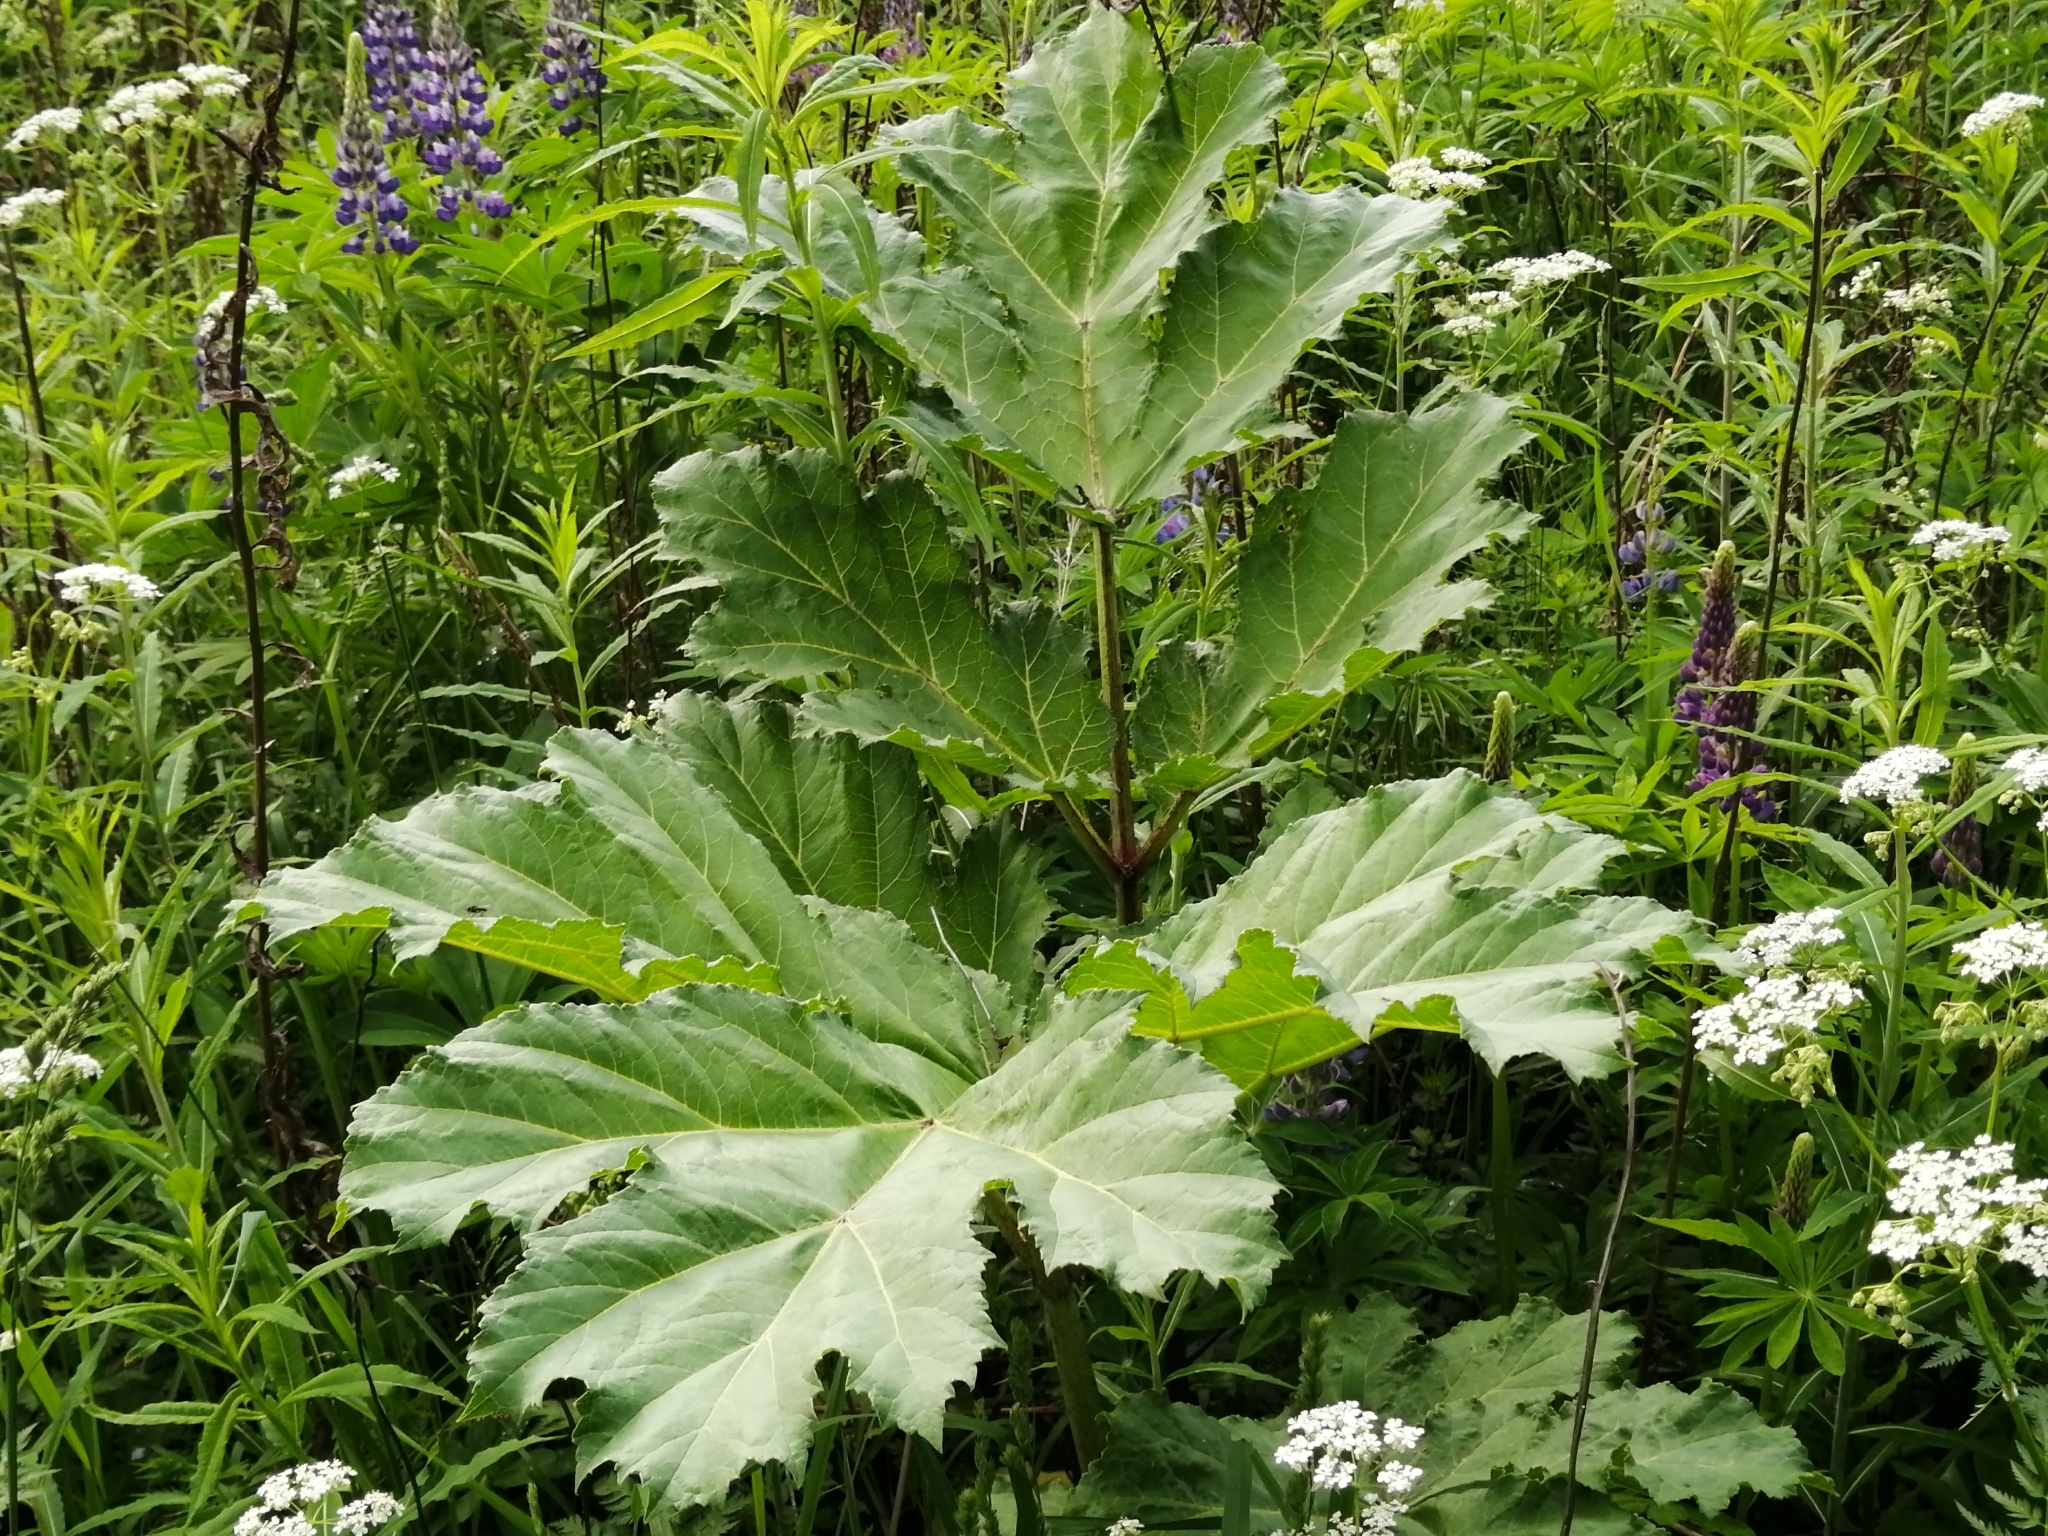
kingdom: Plantae
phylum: Tracheophyta
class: Magnoliopsida
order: Apiales
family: Apiaceae
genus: Heracleum
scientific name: Heracleum sosnowskyi
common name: Sosnowsky's hogweed
